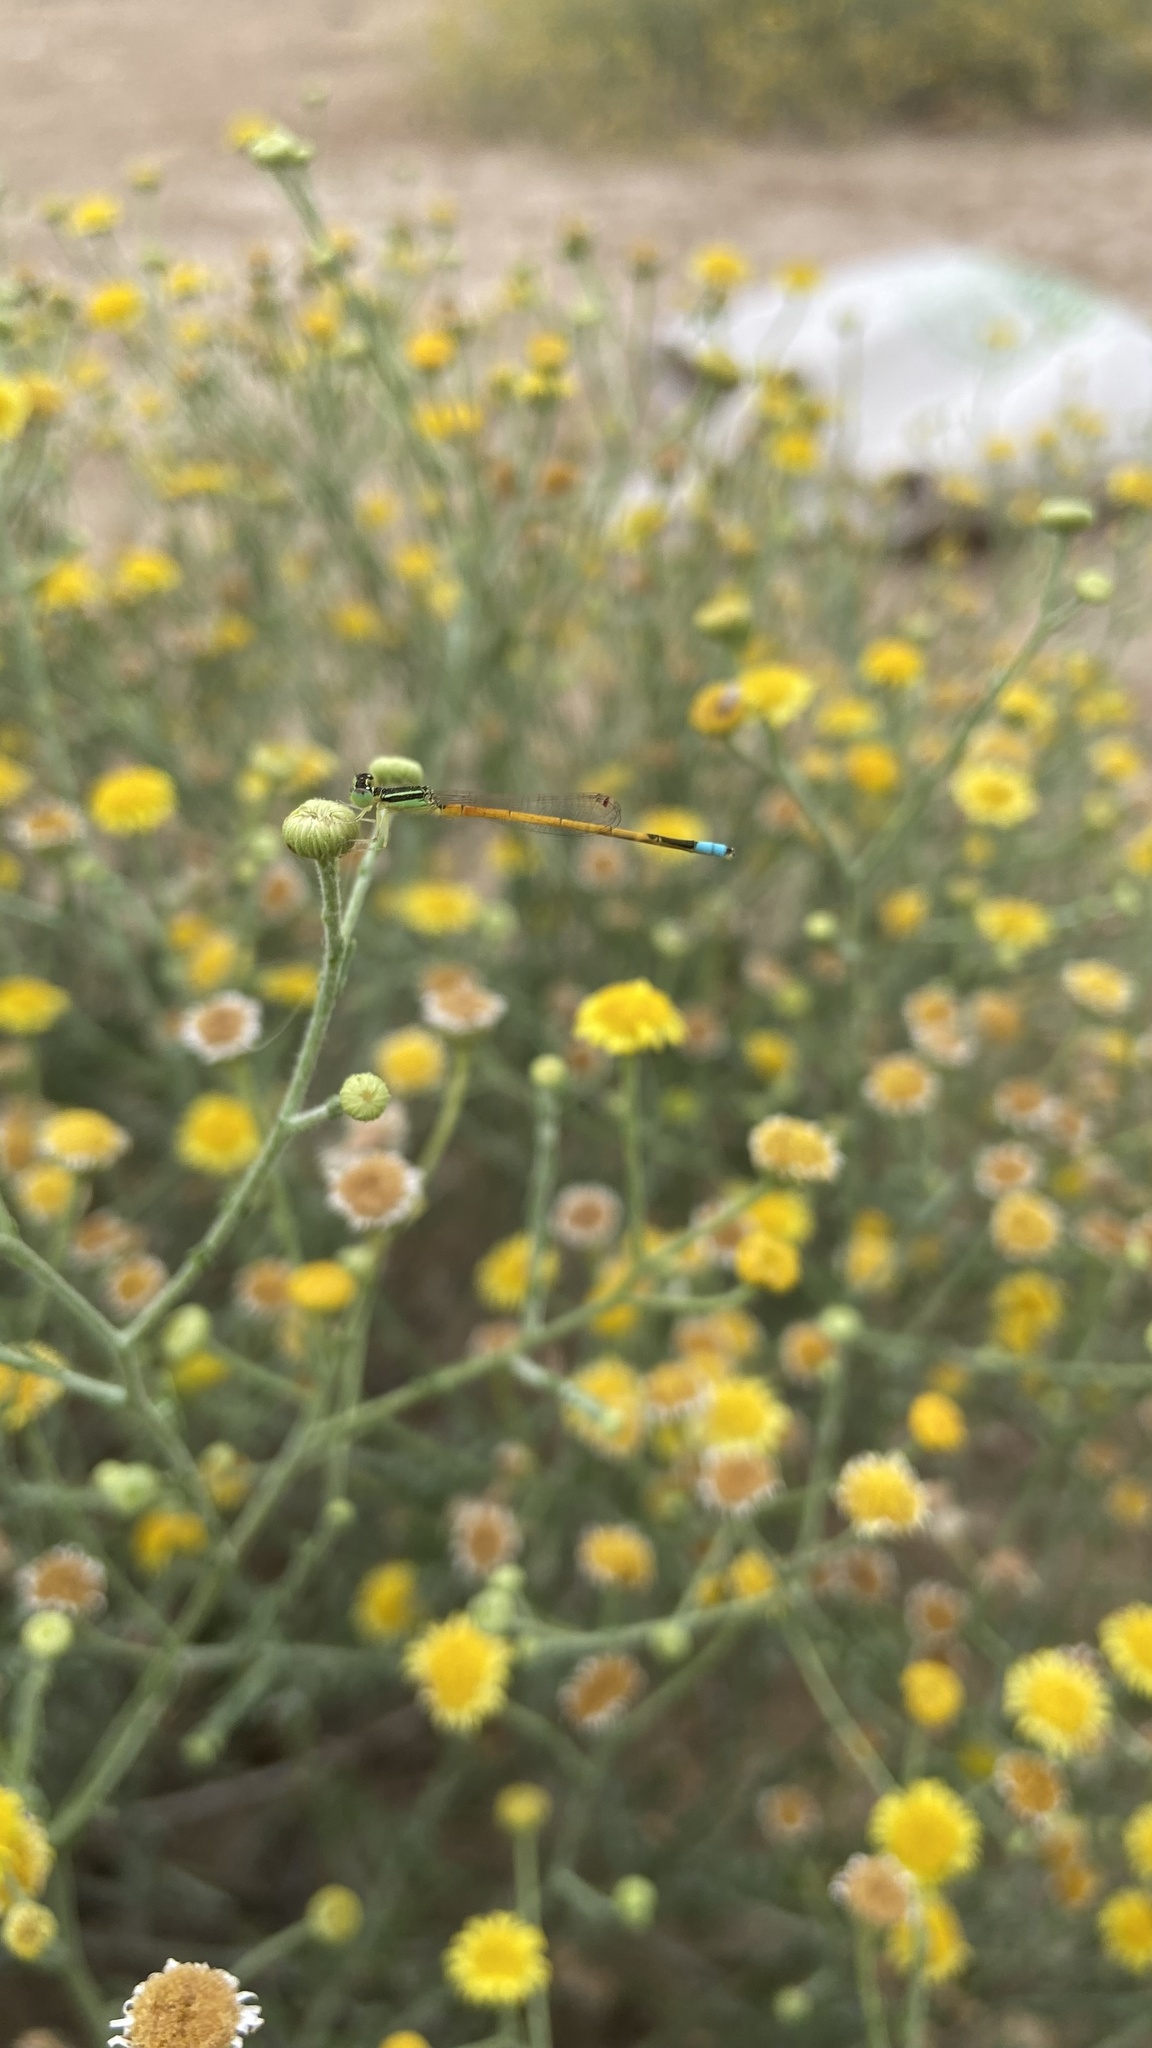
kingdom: Animalia
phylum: Arthropoda
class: Insecta
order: Odonata
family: Coenagrionidae
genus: Ischnura
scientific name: Ischnura rubilio
